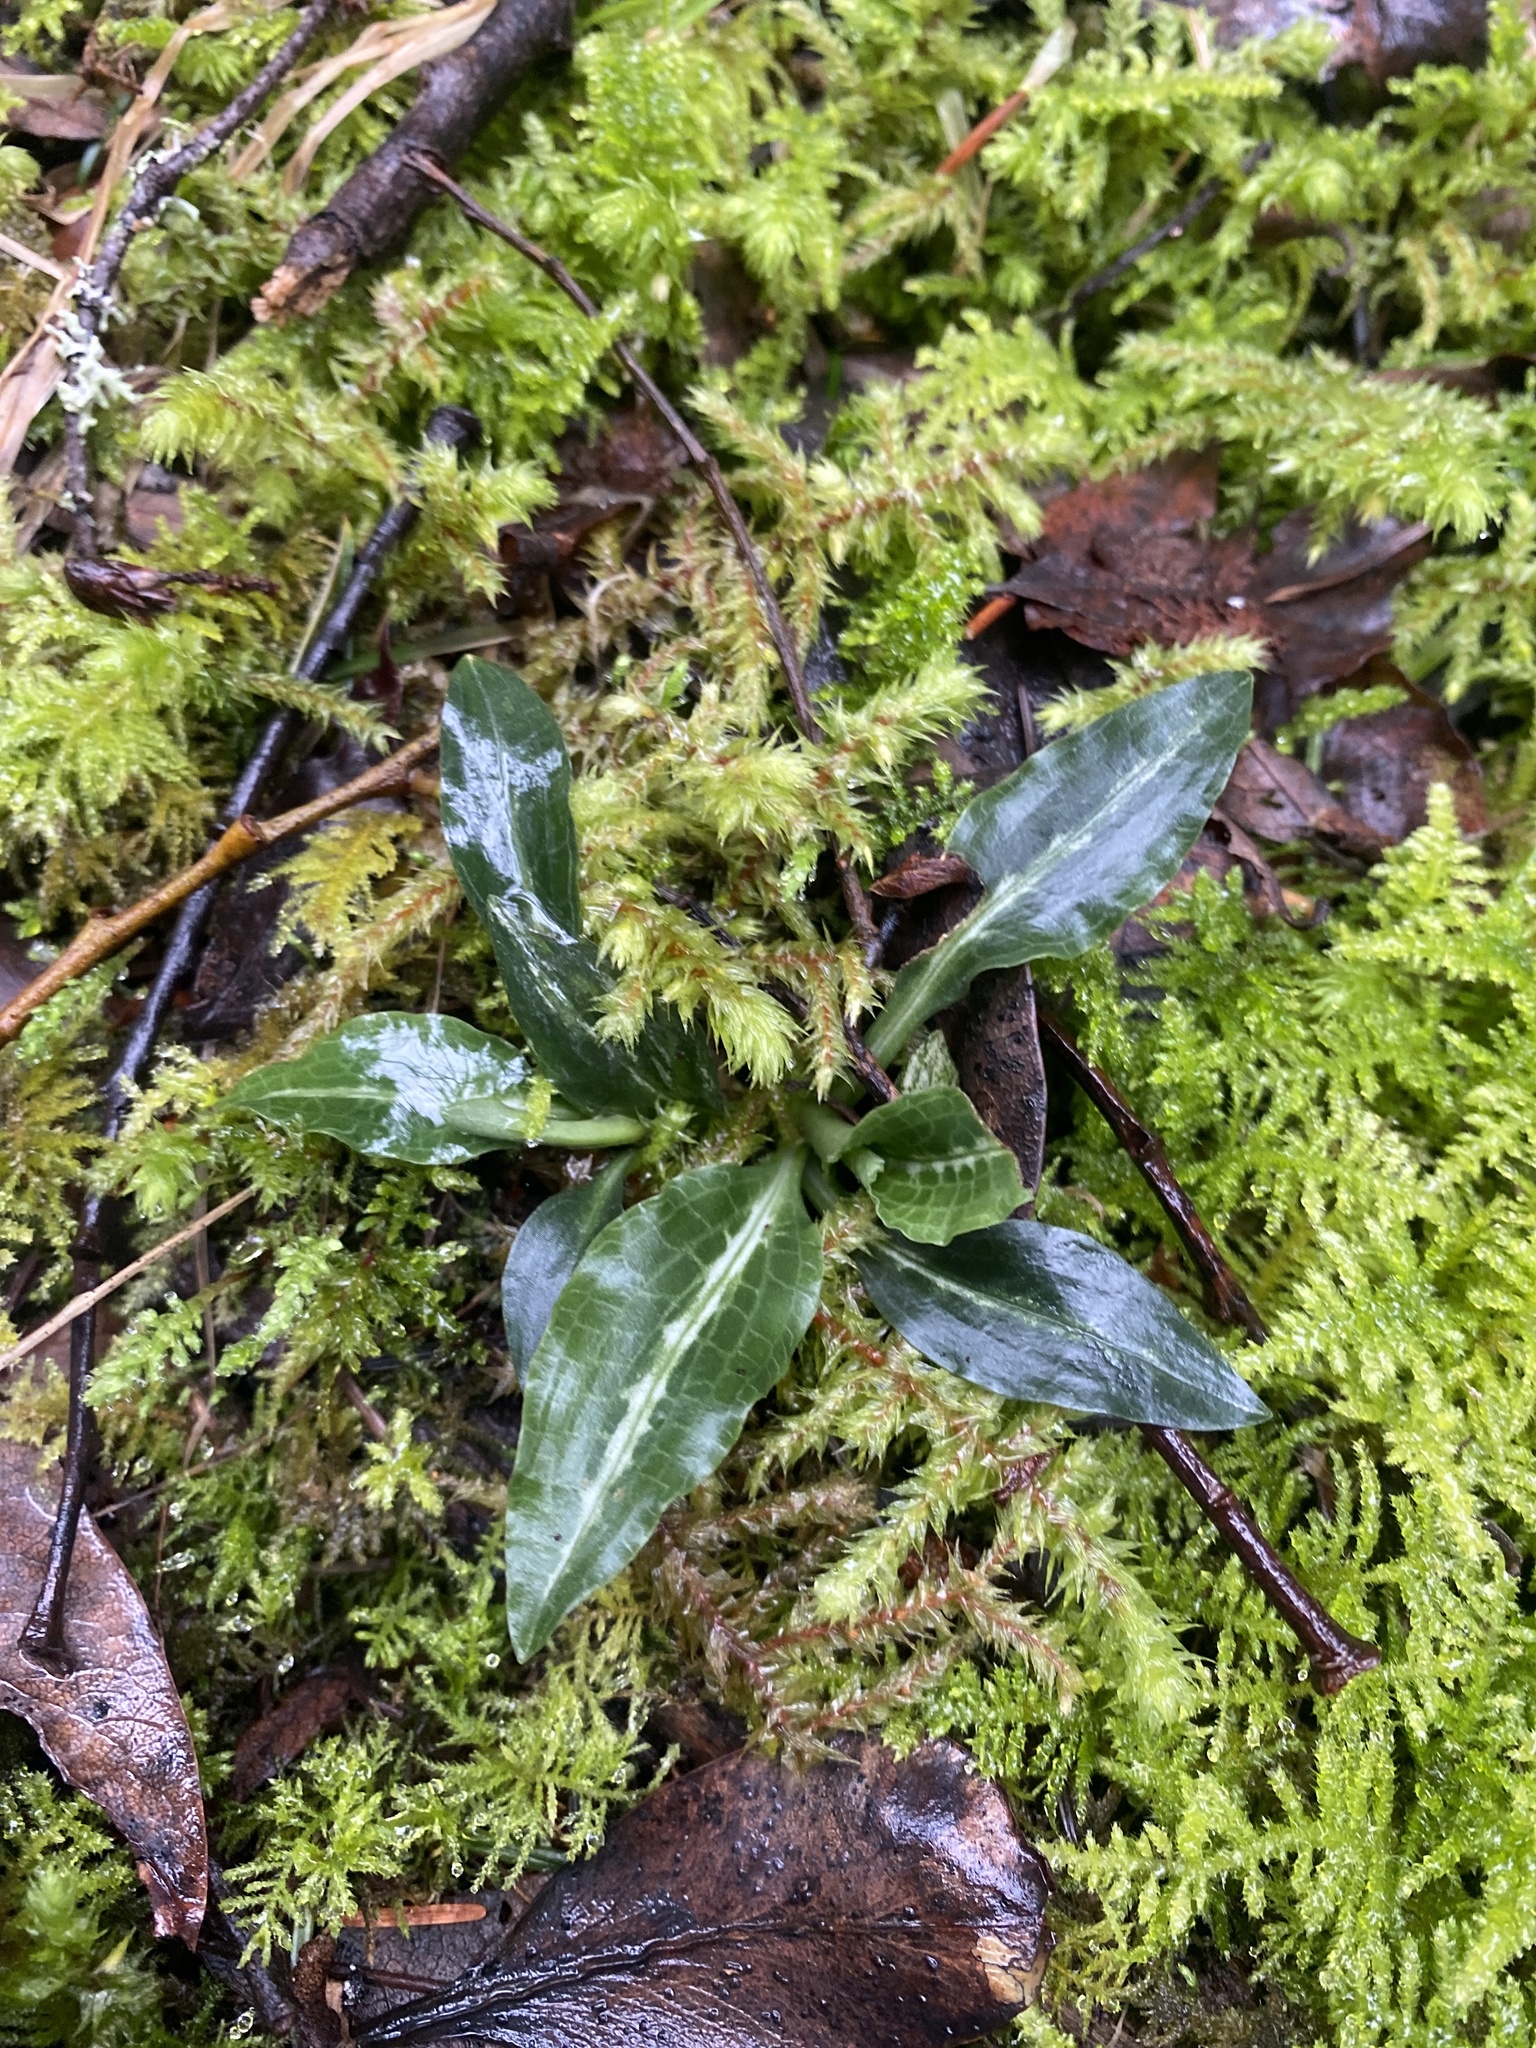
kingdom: Plantae
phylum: Tracheophyta
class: Liliopsida
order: Asparagales
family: Orchidaceae
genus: Goodyera
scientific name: Goodyera oblongifolia
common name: Giant rattlesnake-plantain
